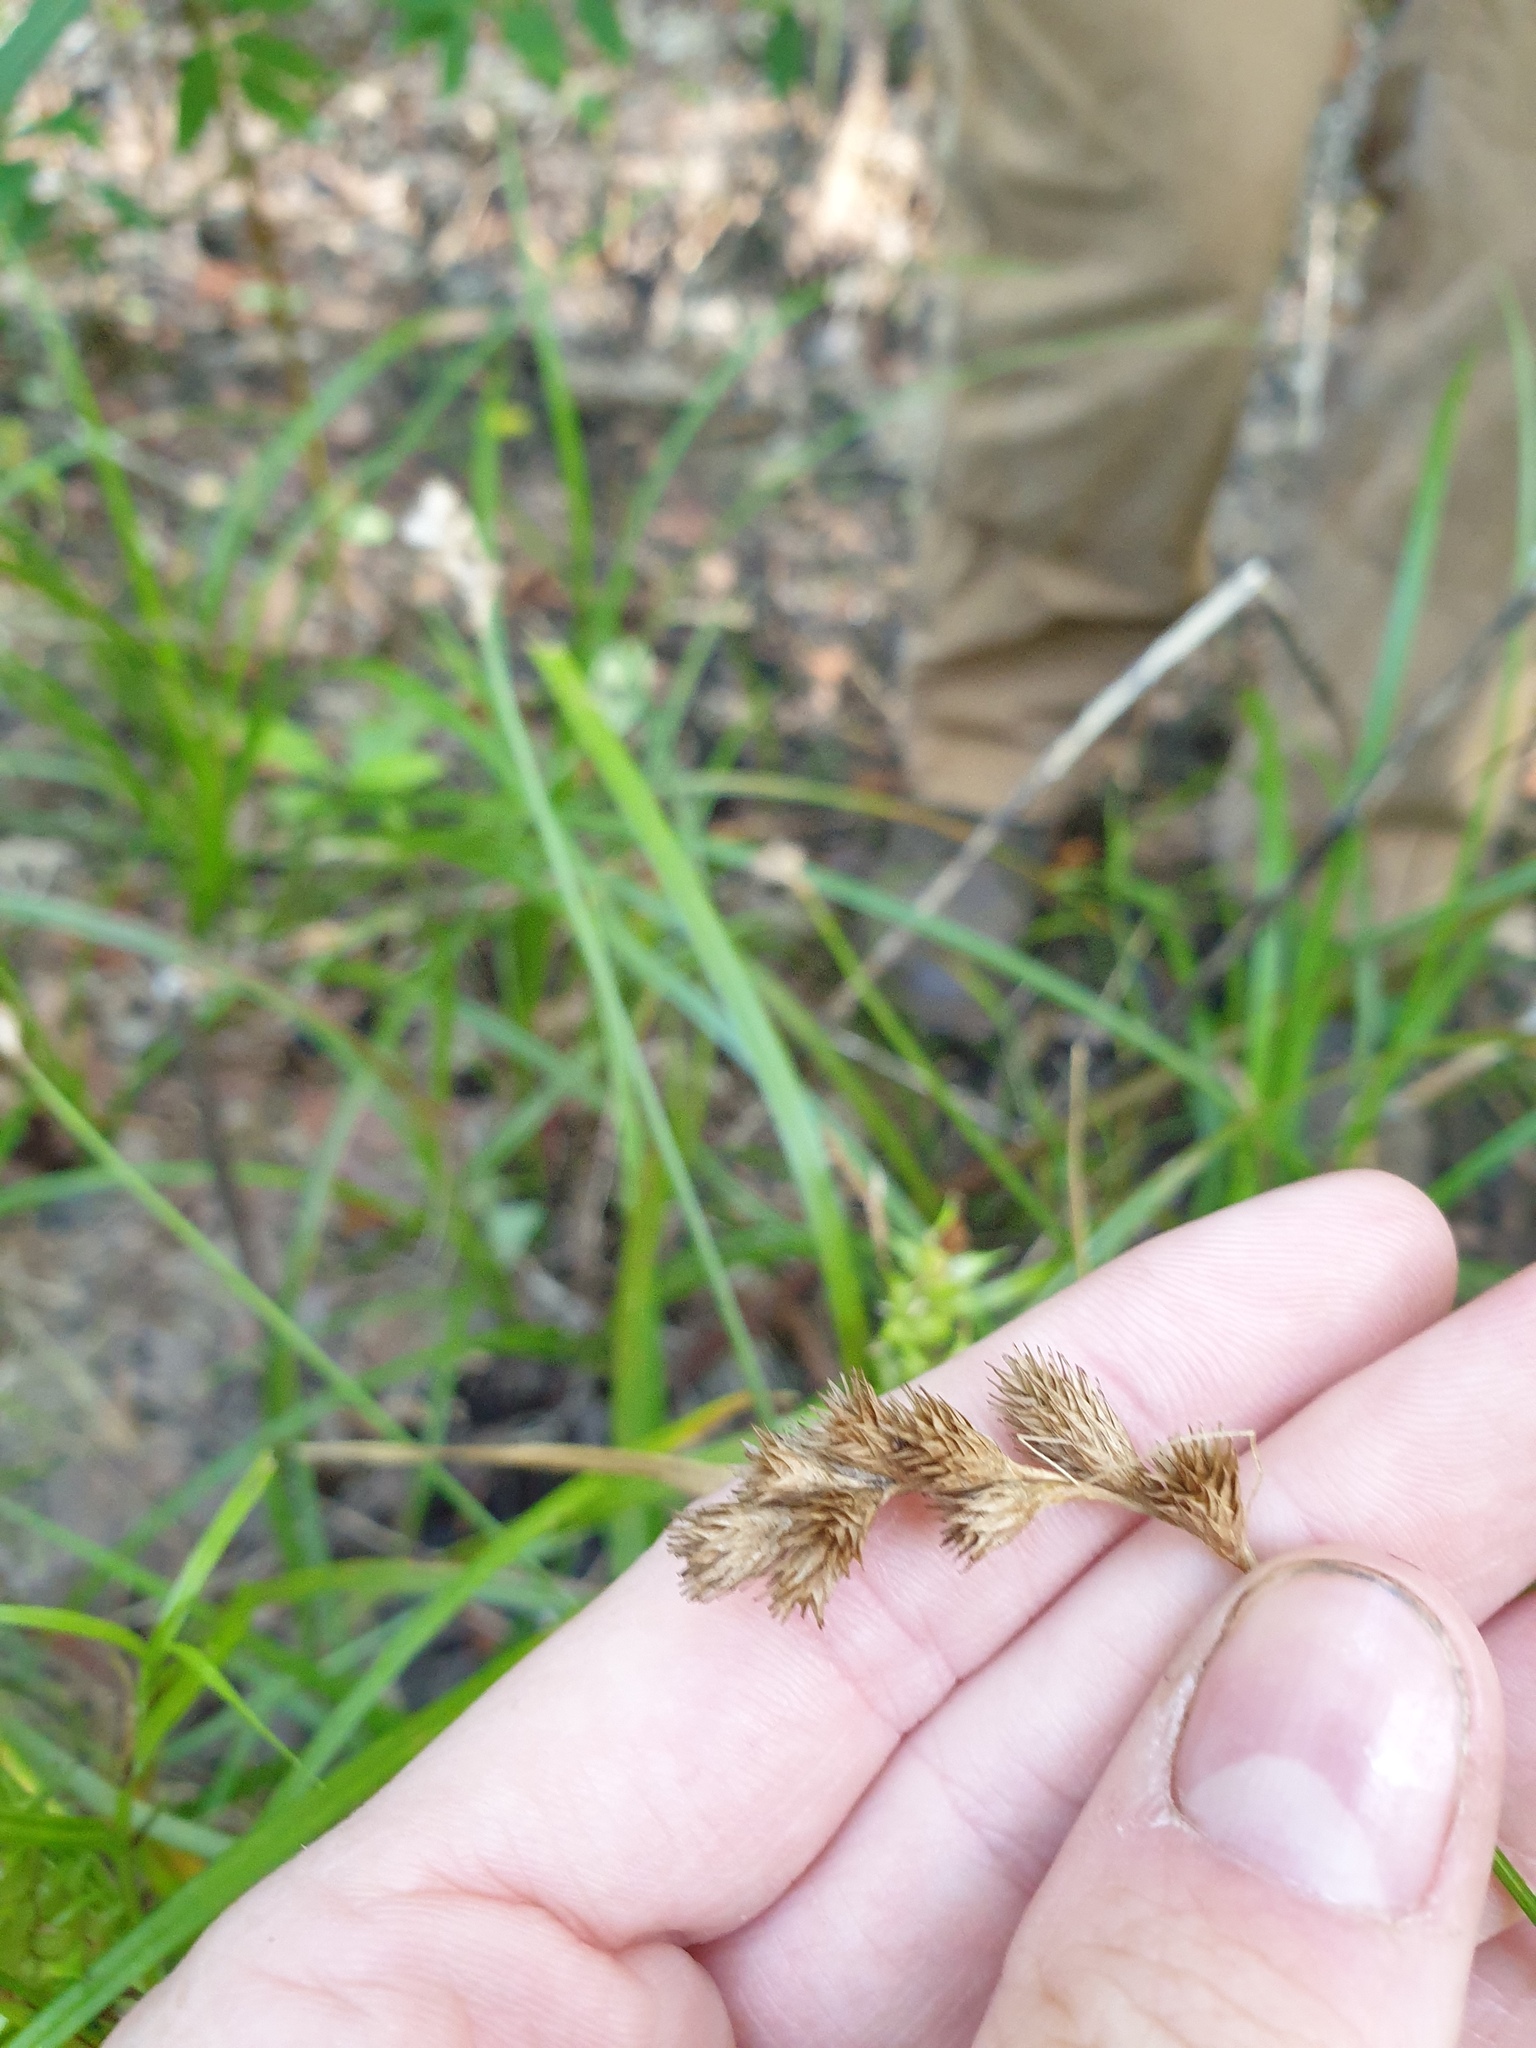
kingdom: Plantae
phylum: Tracheophyta
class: Liliopsida
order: Poales
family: Cyperaceae
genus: Carex
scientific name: Carex tribuloides
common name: Blunt broom sedge
